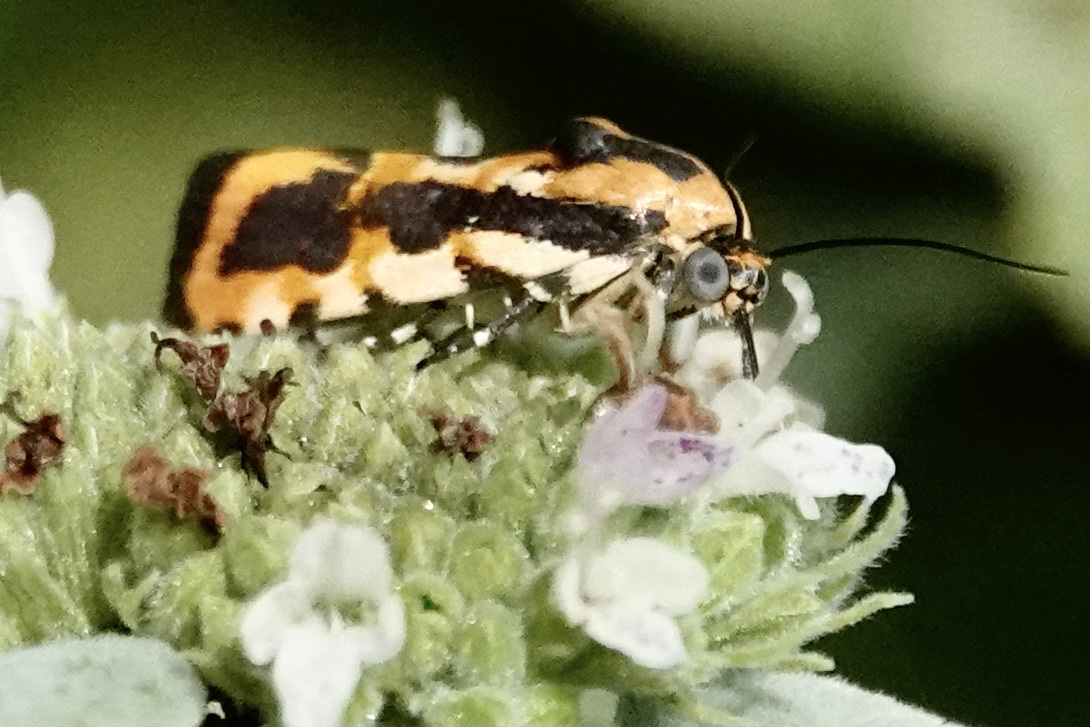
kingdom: Animalia
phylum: Arthropoda
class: Insecta
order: Lepidoptera
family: Noctuidae
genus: Acontia
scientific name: Acontia leo
